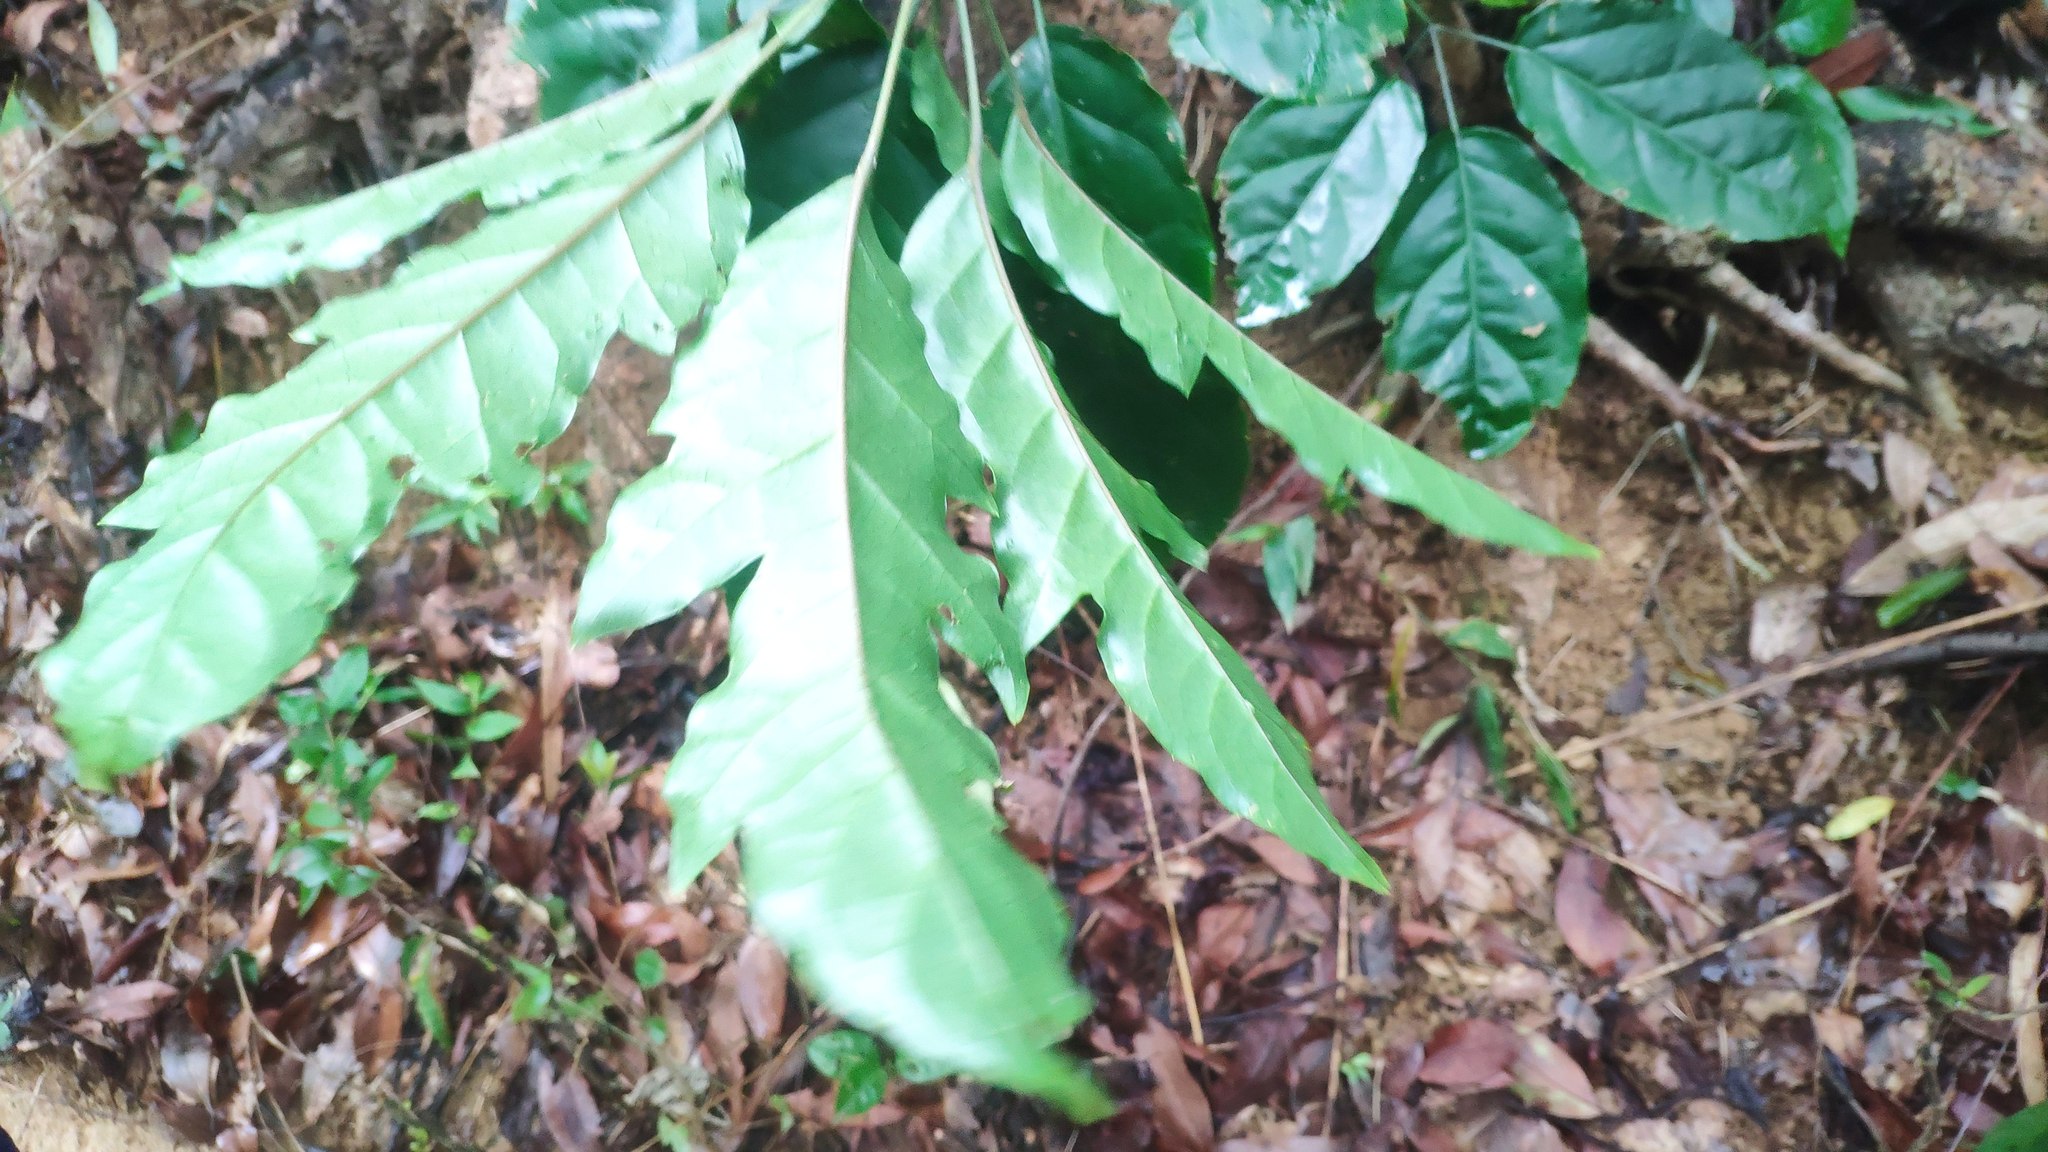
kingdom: Plantae
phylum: Tracheophyta
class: Magnoliopsida
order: Apiales
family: Araliaceae
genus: Heptapleurum
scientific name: Heptapleurum heptaphyllum
